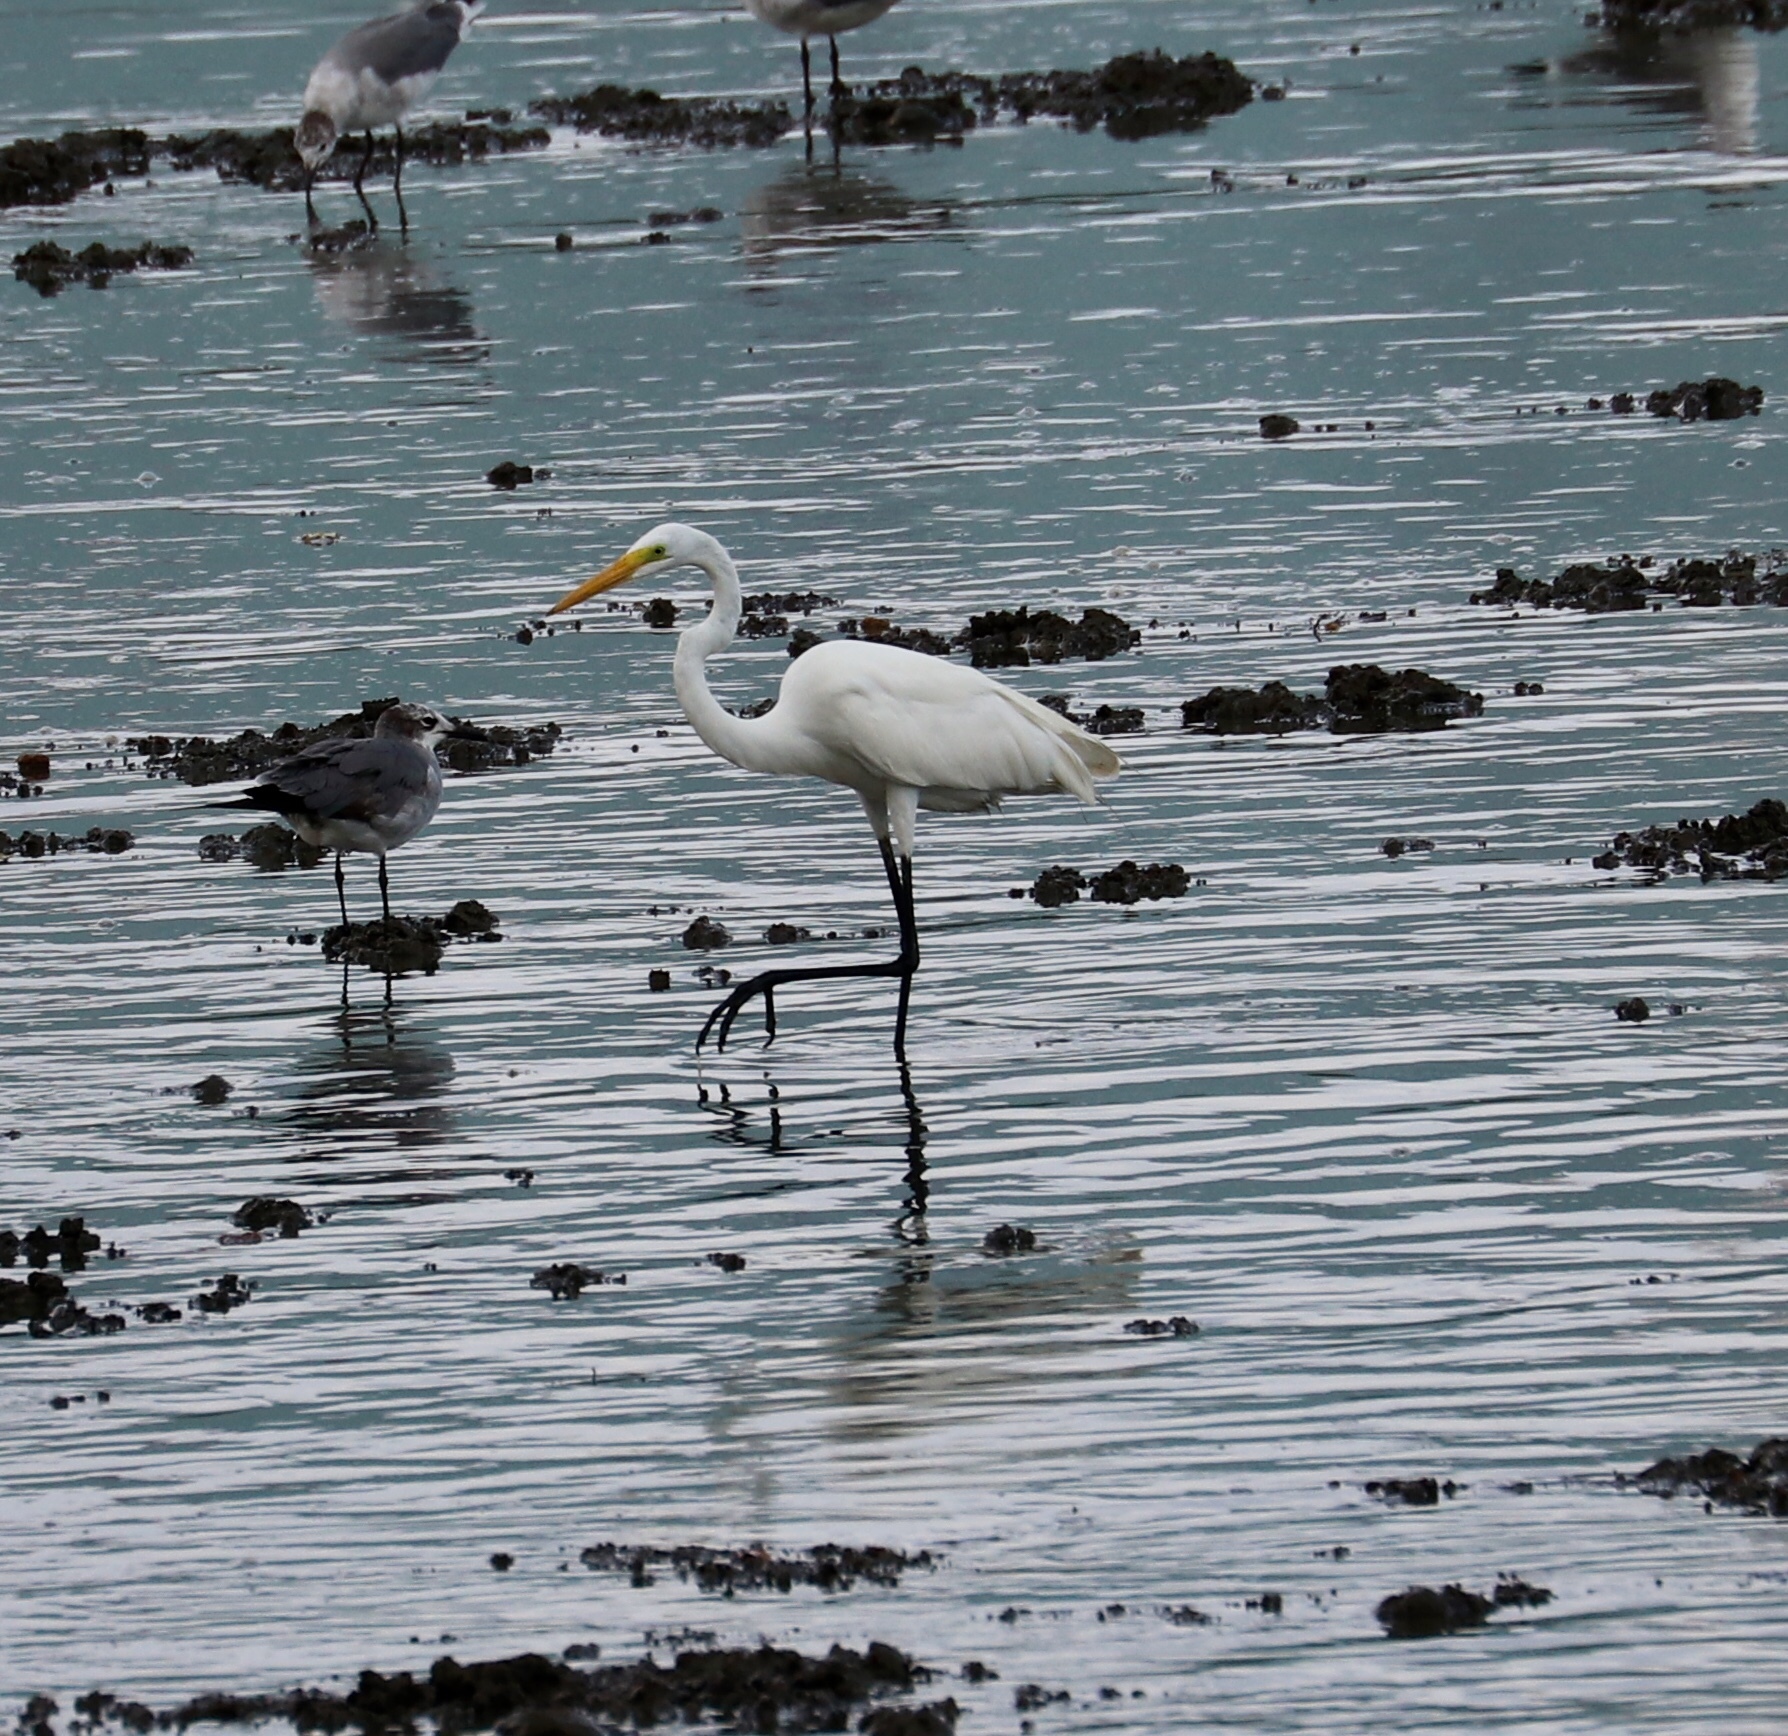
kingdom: Animalia
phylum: Chordata
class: Aves
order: Pelecaniformes
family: Ardeidae
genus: Ardea
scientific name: Ardea alba
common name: Great egret
